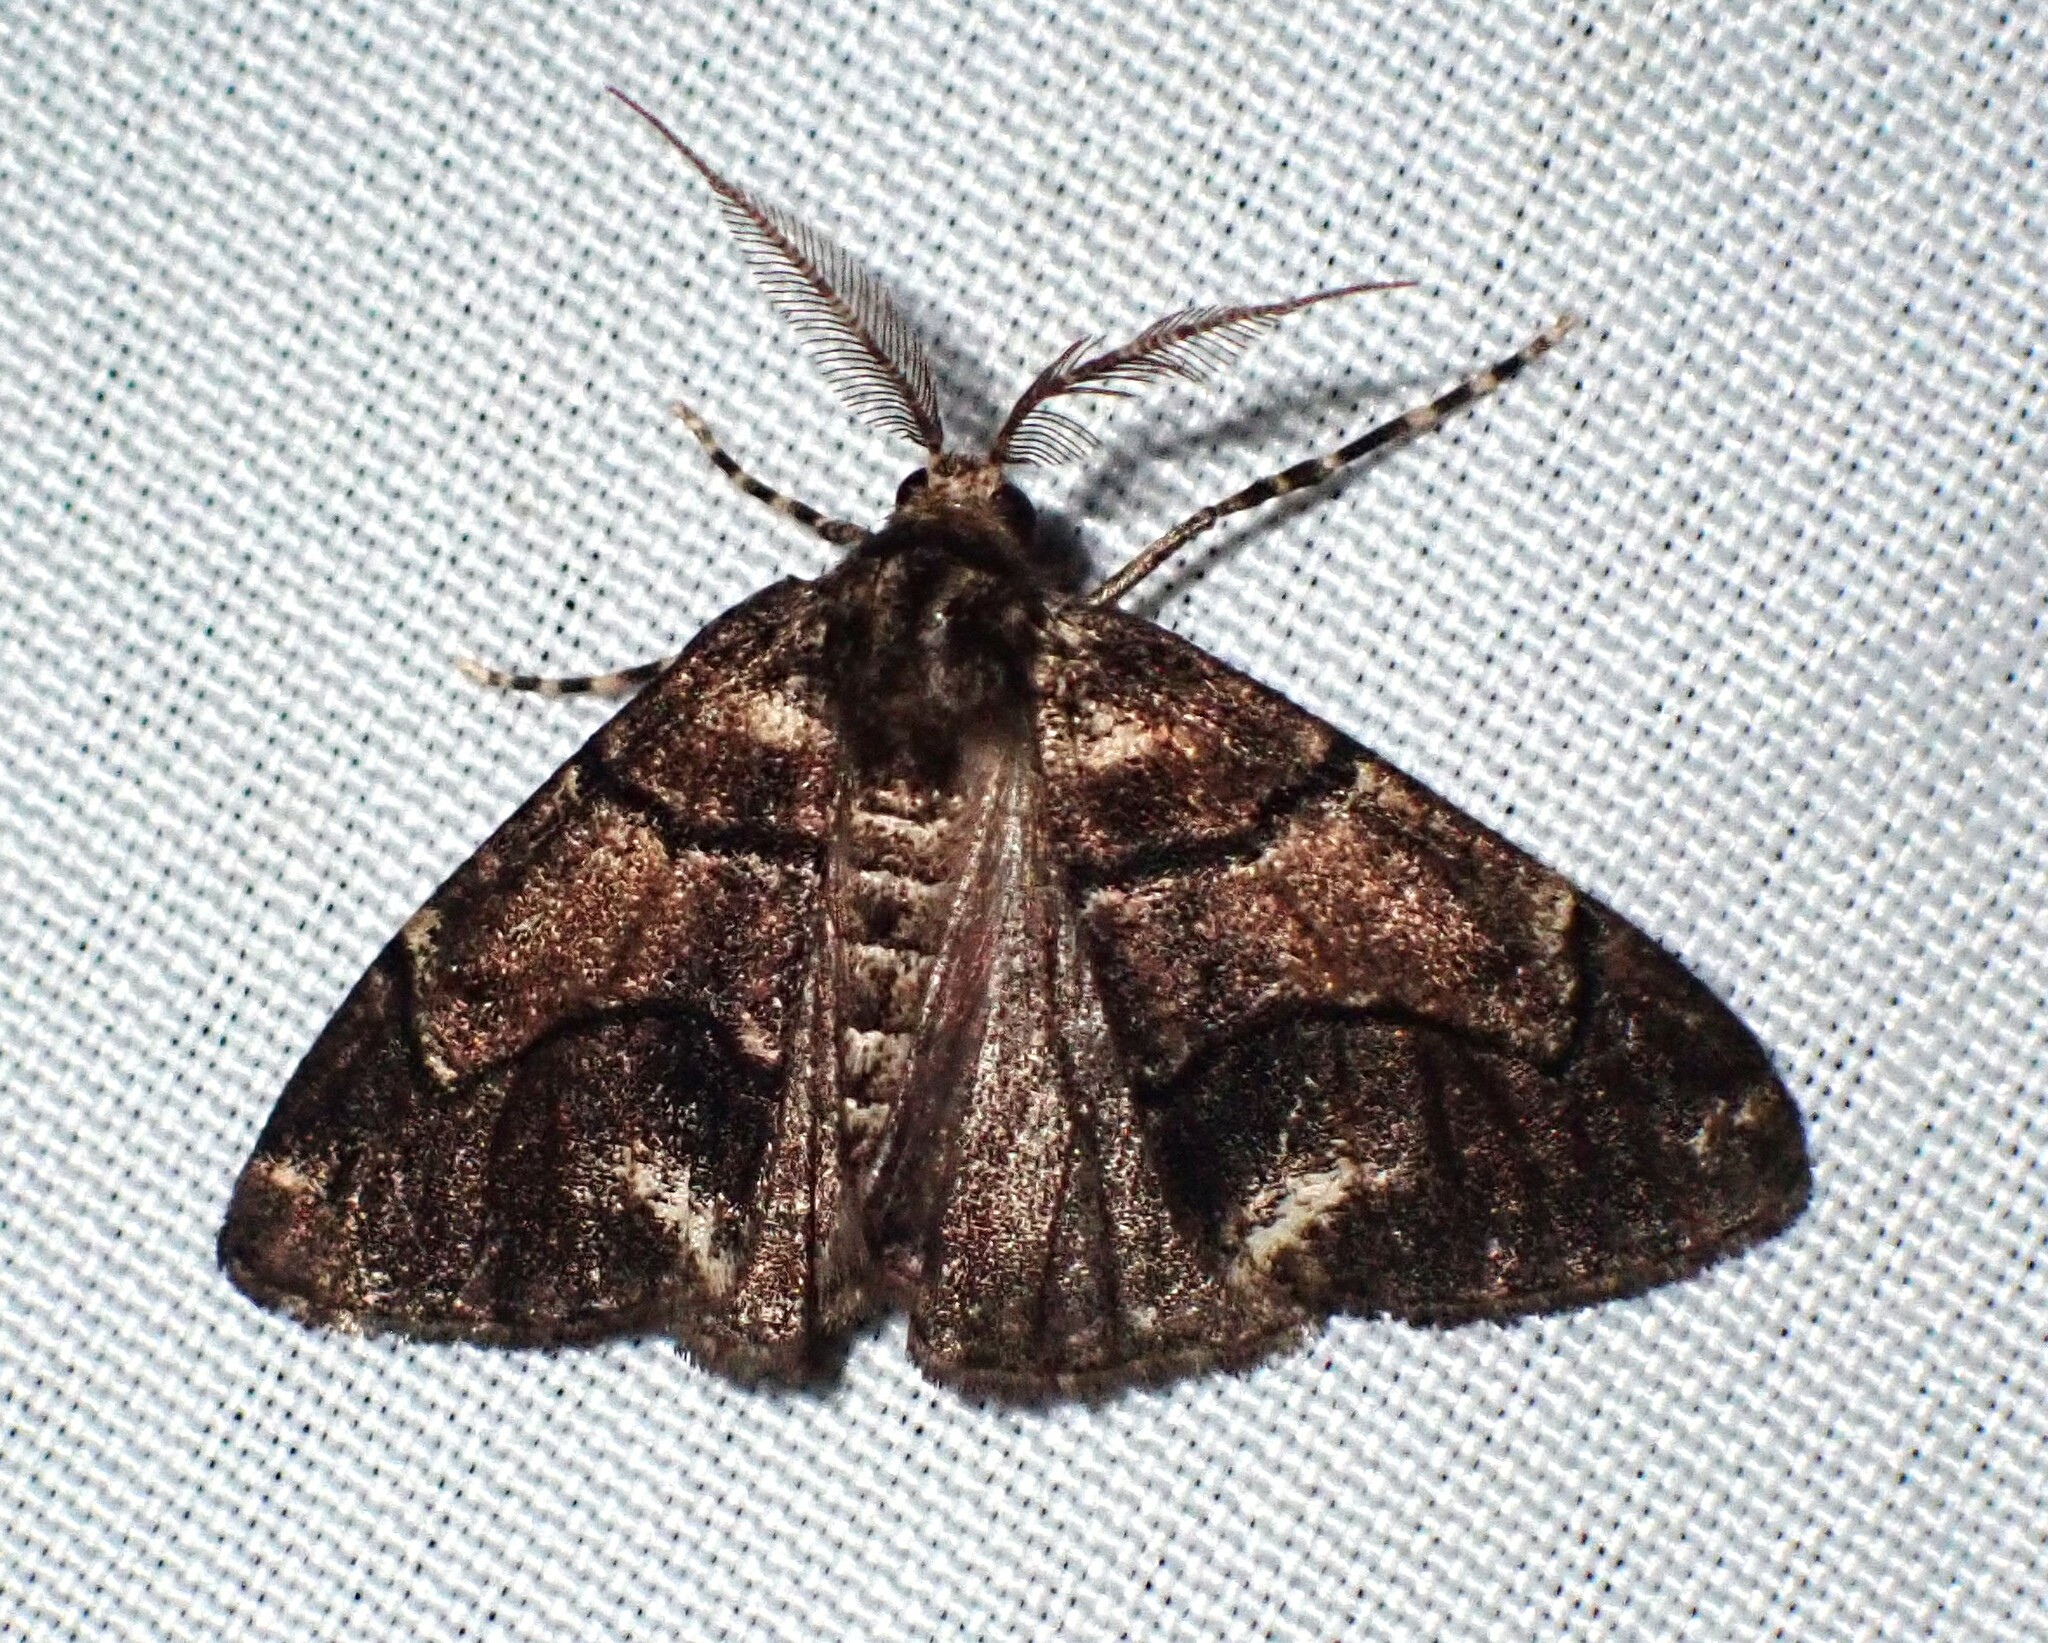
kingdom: Animalia
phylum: Arthropoda
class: Insecta
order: Lepidoptera
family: Geometridae
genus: Gabriola
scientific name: Gabriola dyari
